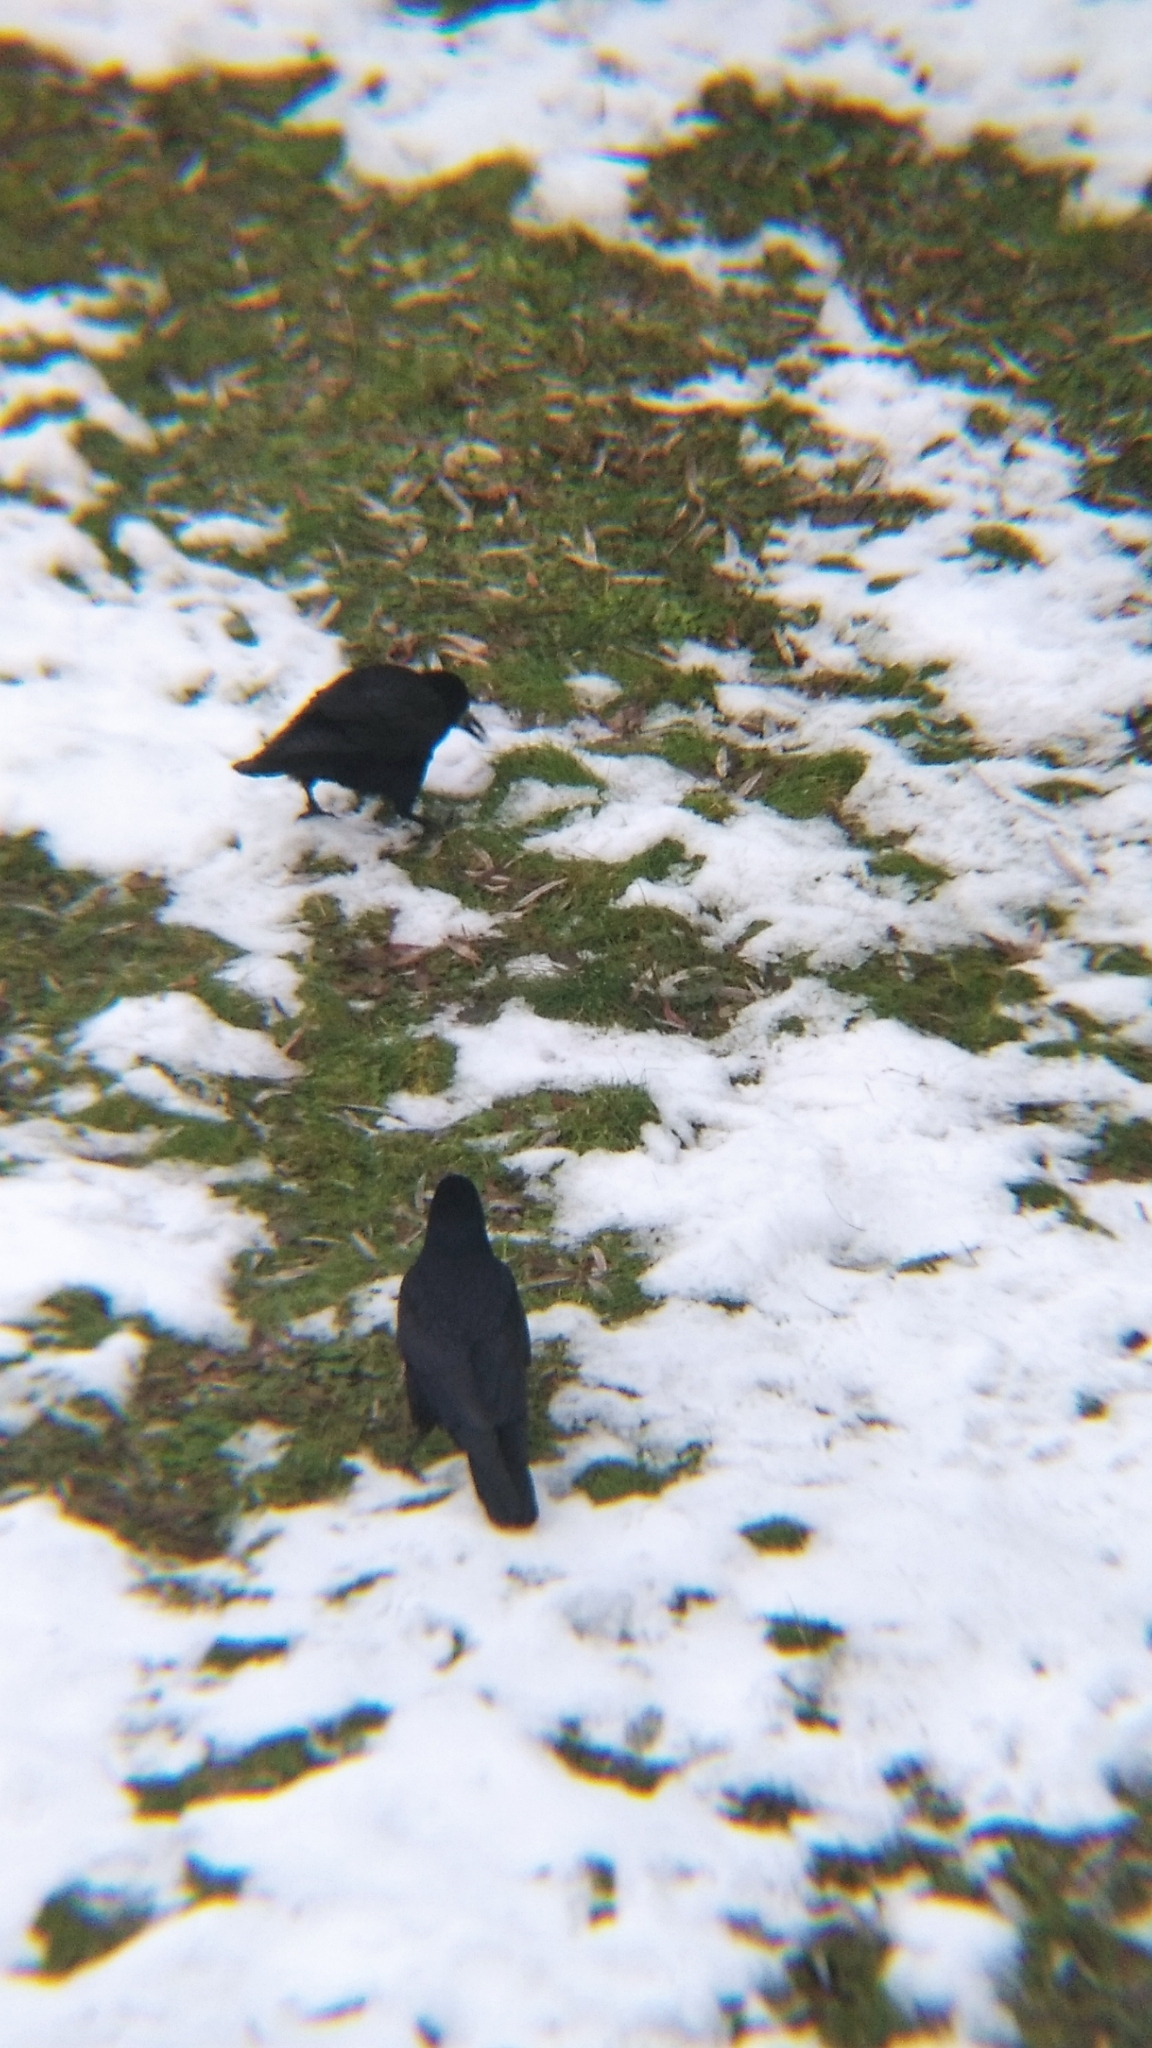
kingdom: Animalia
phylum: Chordata
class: Aves
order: Passeriformes
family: Corvidae
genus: Corvus
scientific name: Corvus frugilegus
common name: Rook
